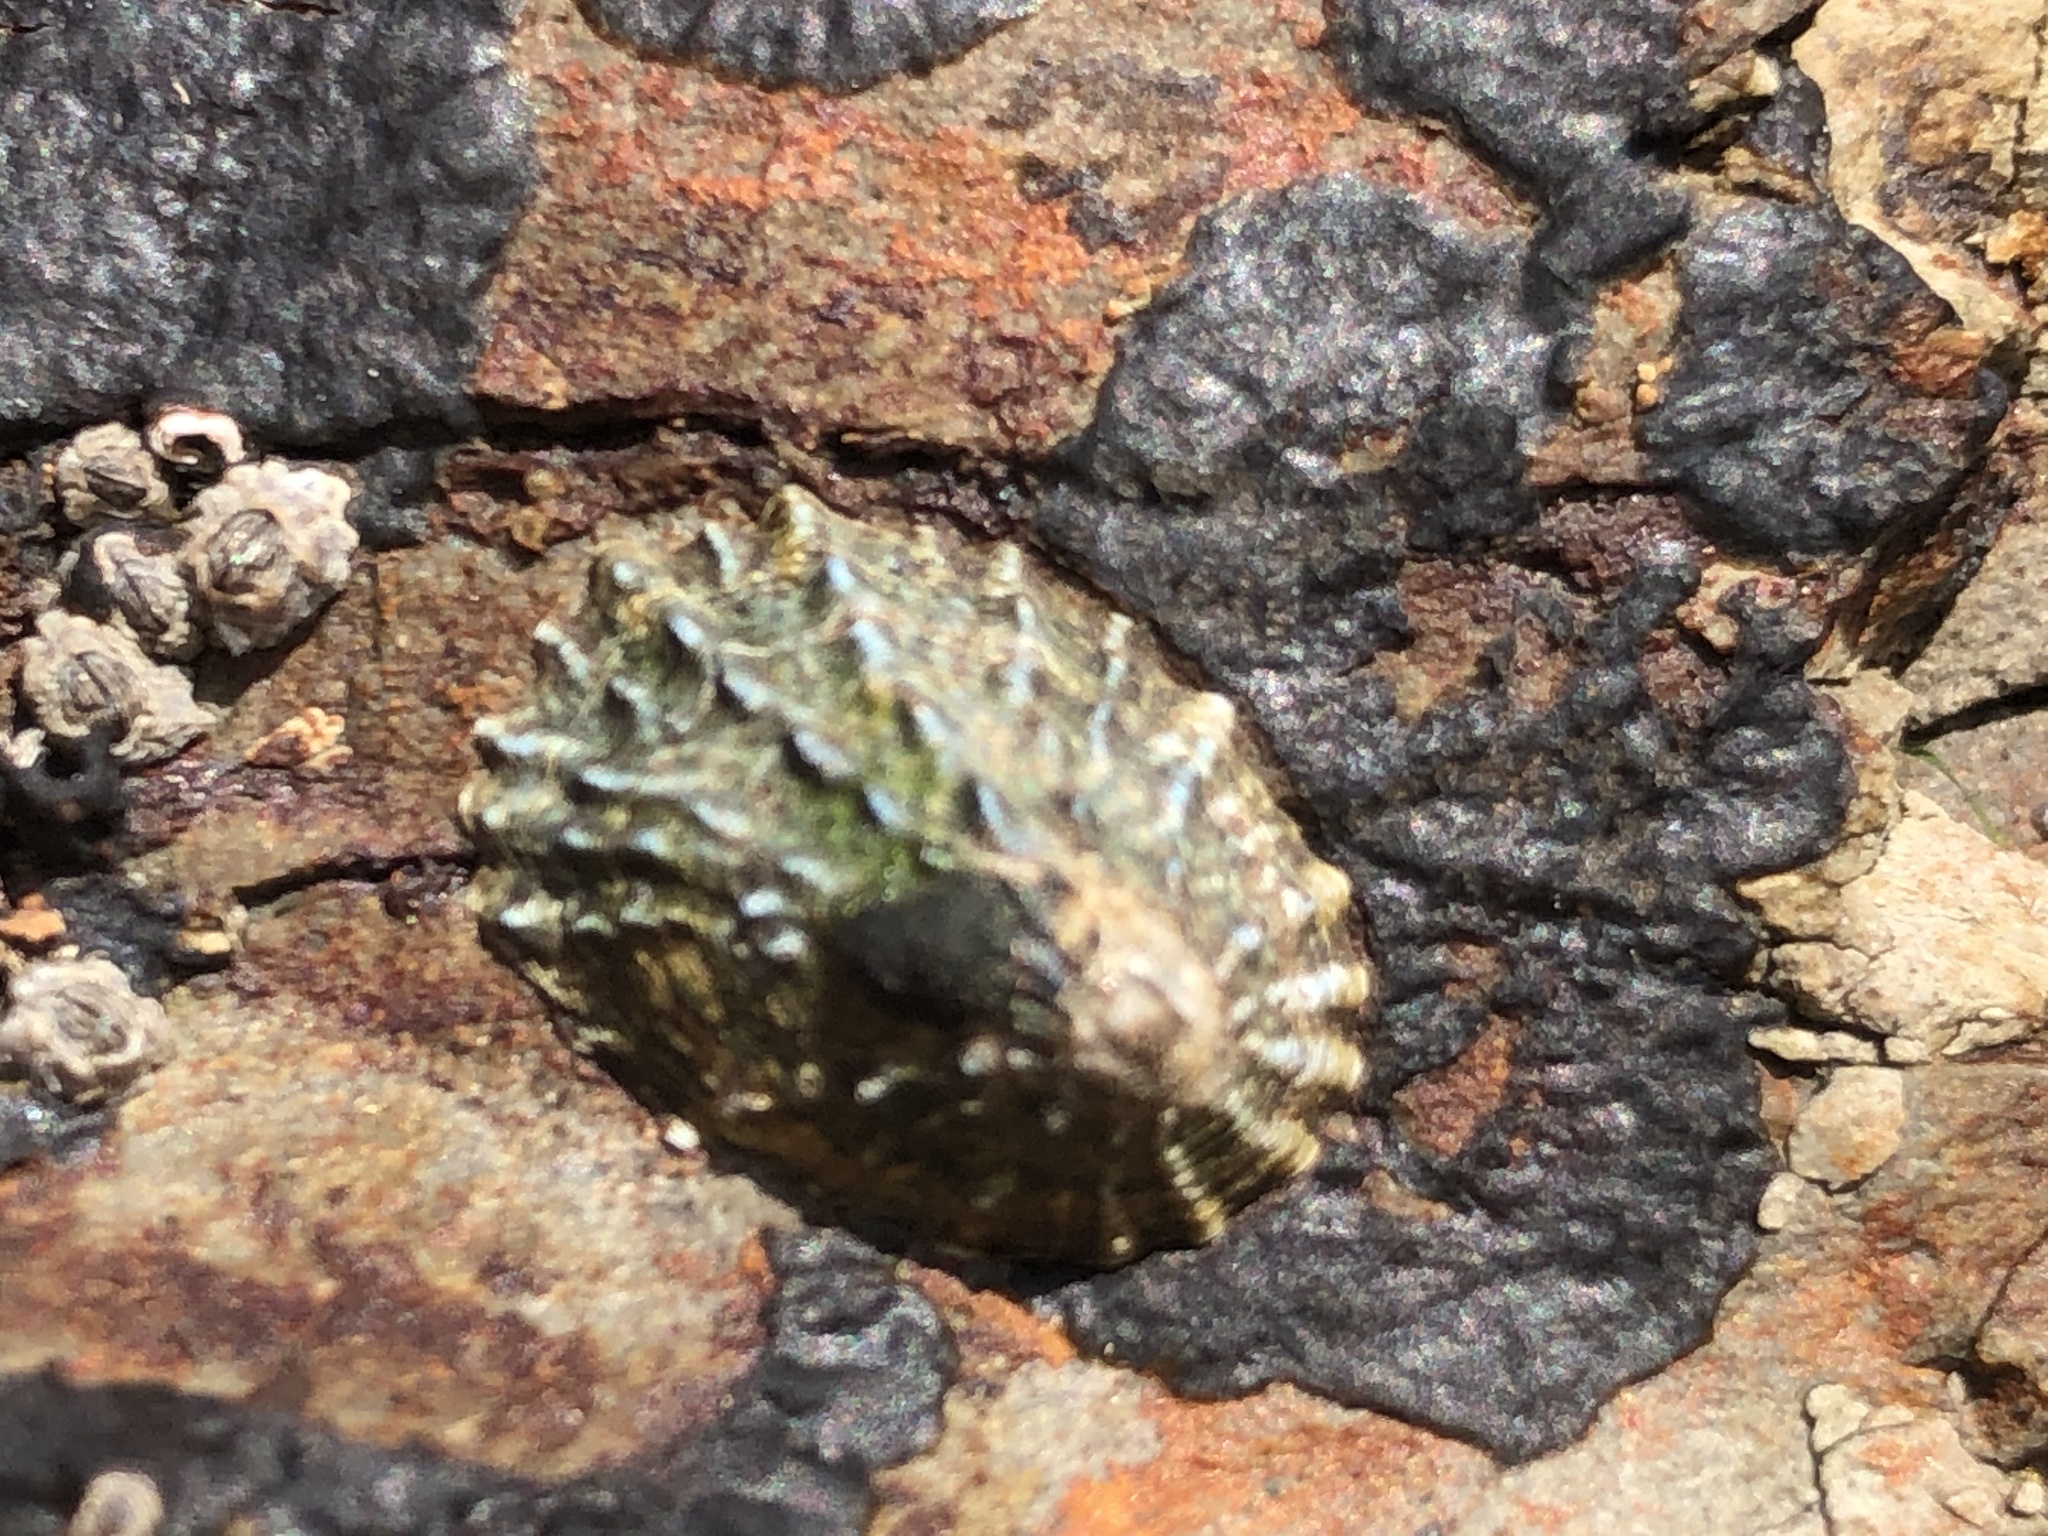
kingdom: Animalia
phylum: Mollusca
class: Gastropoda
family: Lottiidae
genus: Lottia
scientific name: Lottia scabra
